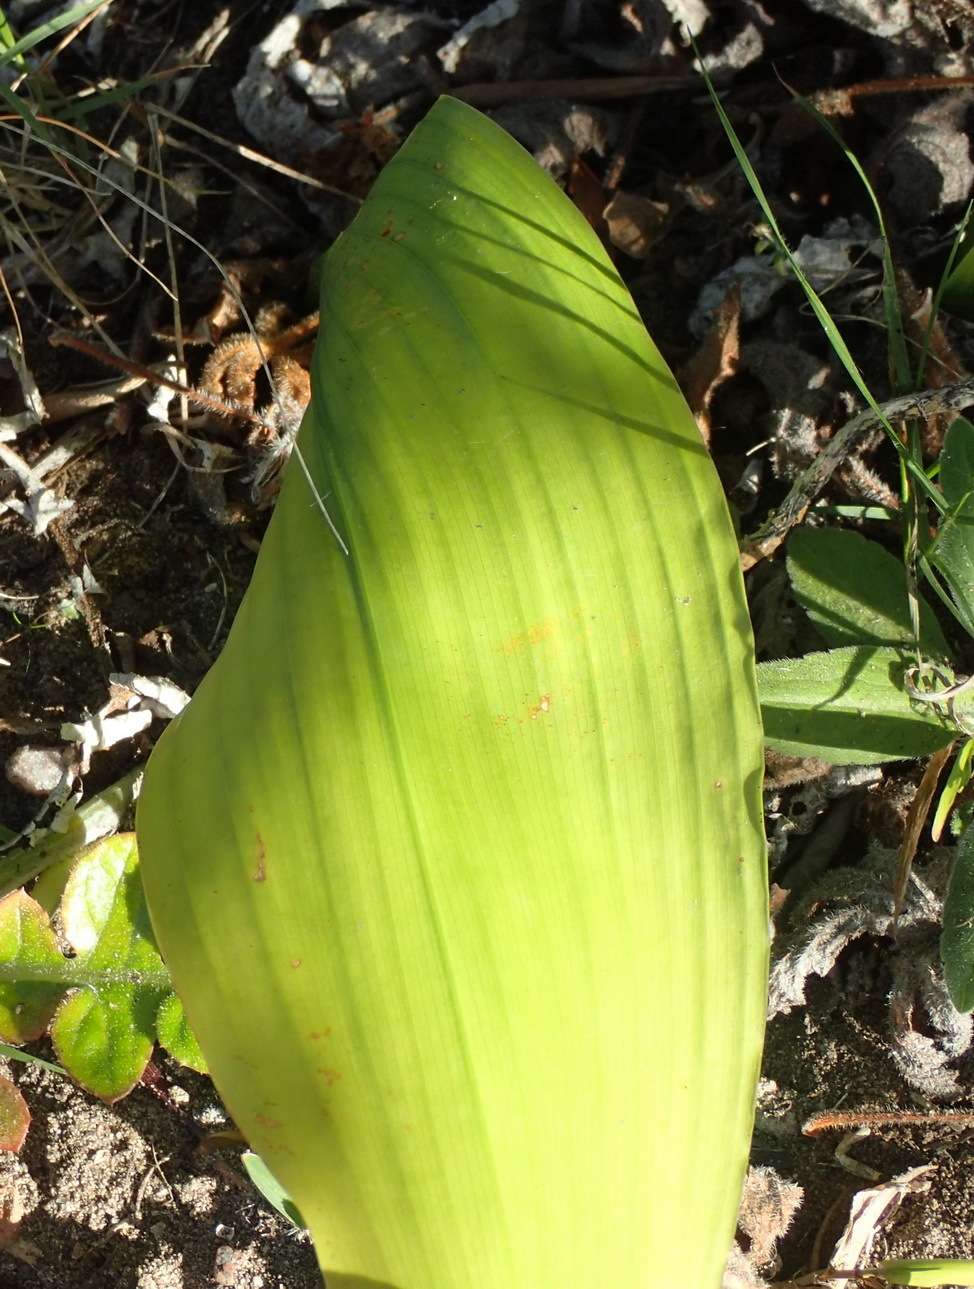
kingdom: Plantae
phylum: Tracheophyta
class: Liliopsida
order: Asparagales
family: Asparagaceae
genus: Aspidistra
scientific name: Aspidistra elatior
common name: Cast-iron-plant
